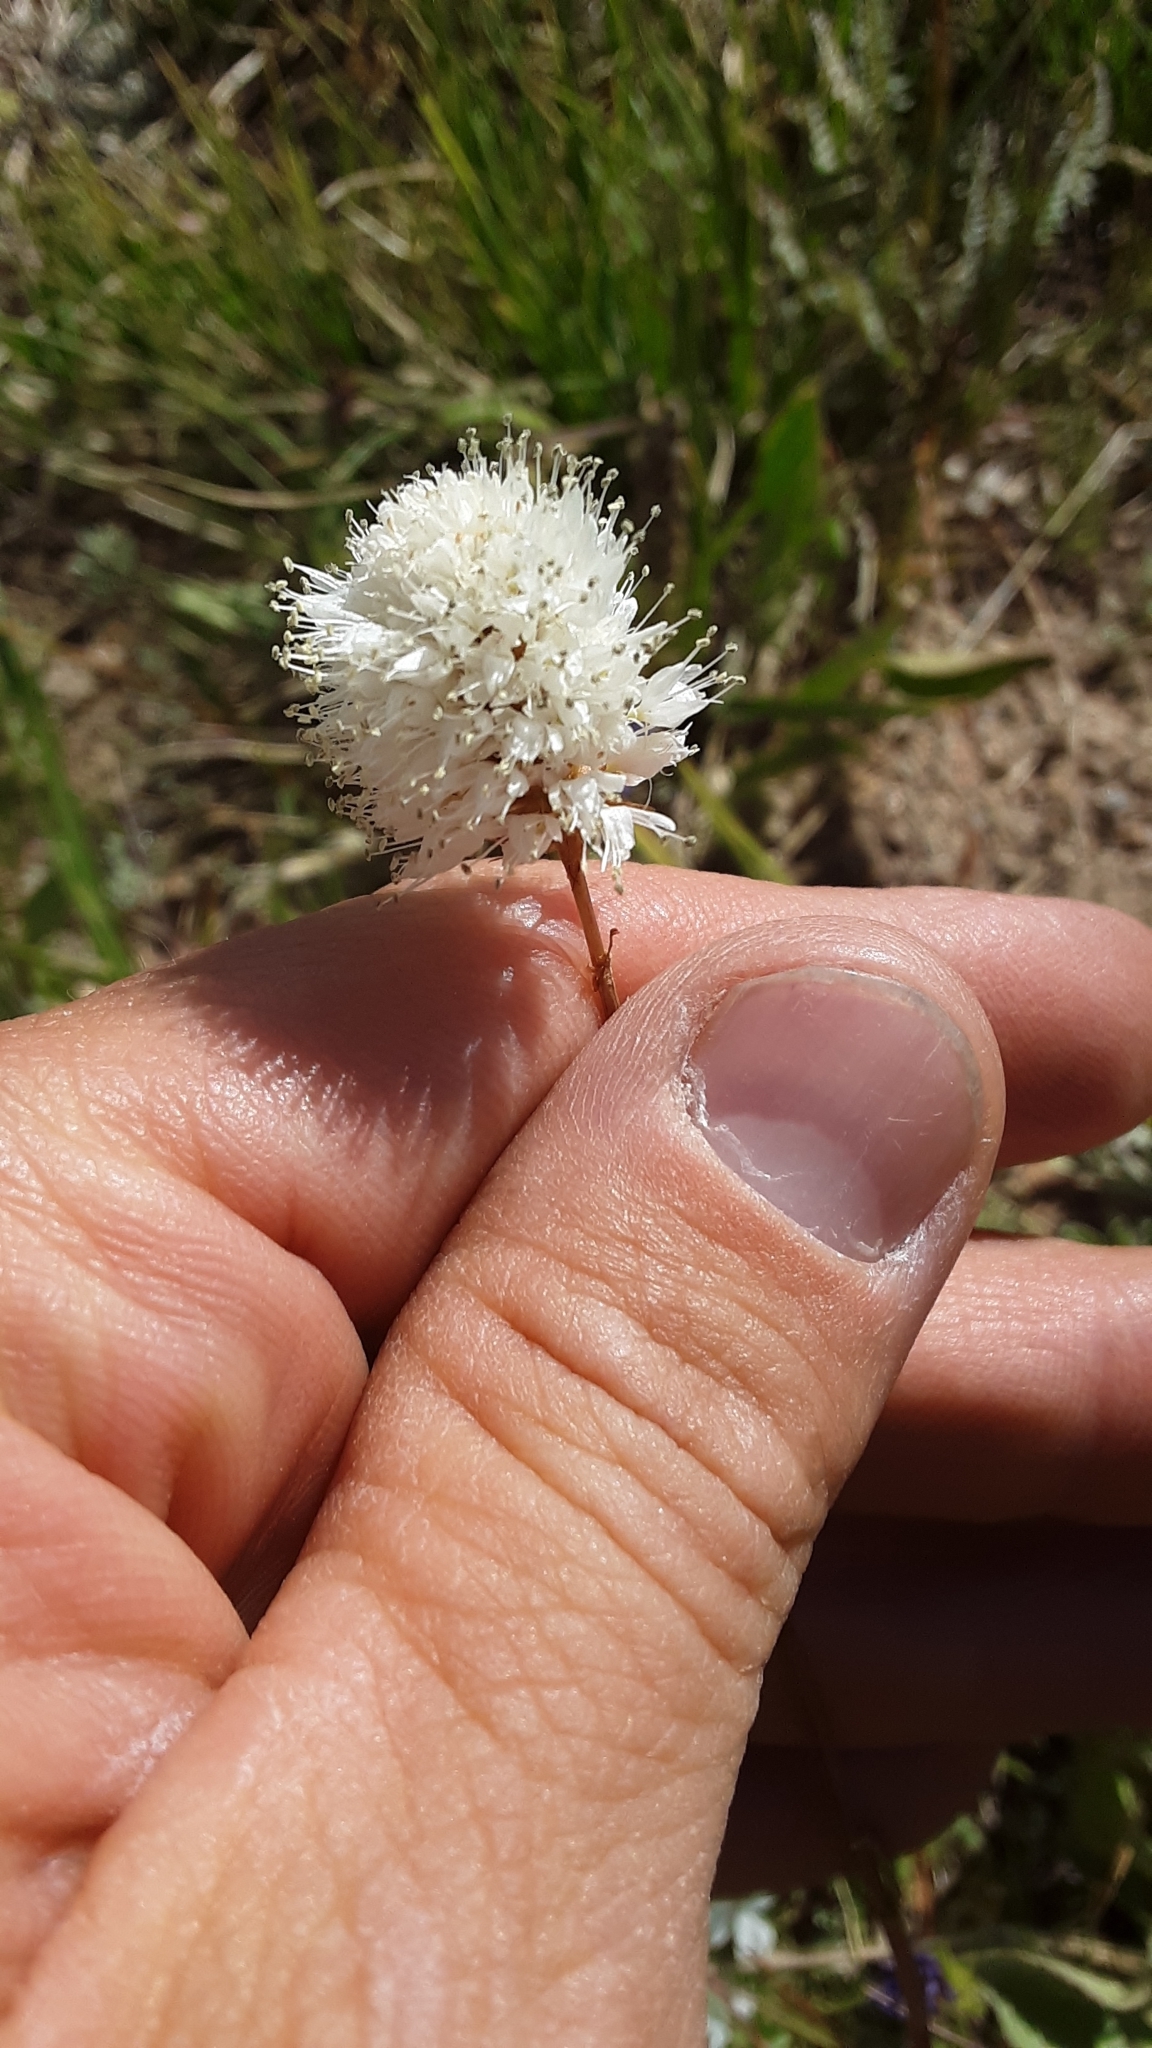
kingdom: Plantae
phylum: Tracheophyta
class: Magnoliopsida
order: Caryophyllales
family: Polygonaceae
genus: Bistorta
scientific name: Bistorta bistortoides
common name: American bistort
